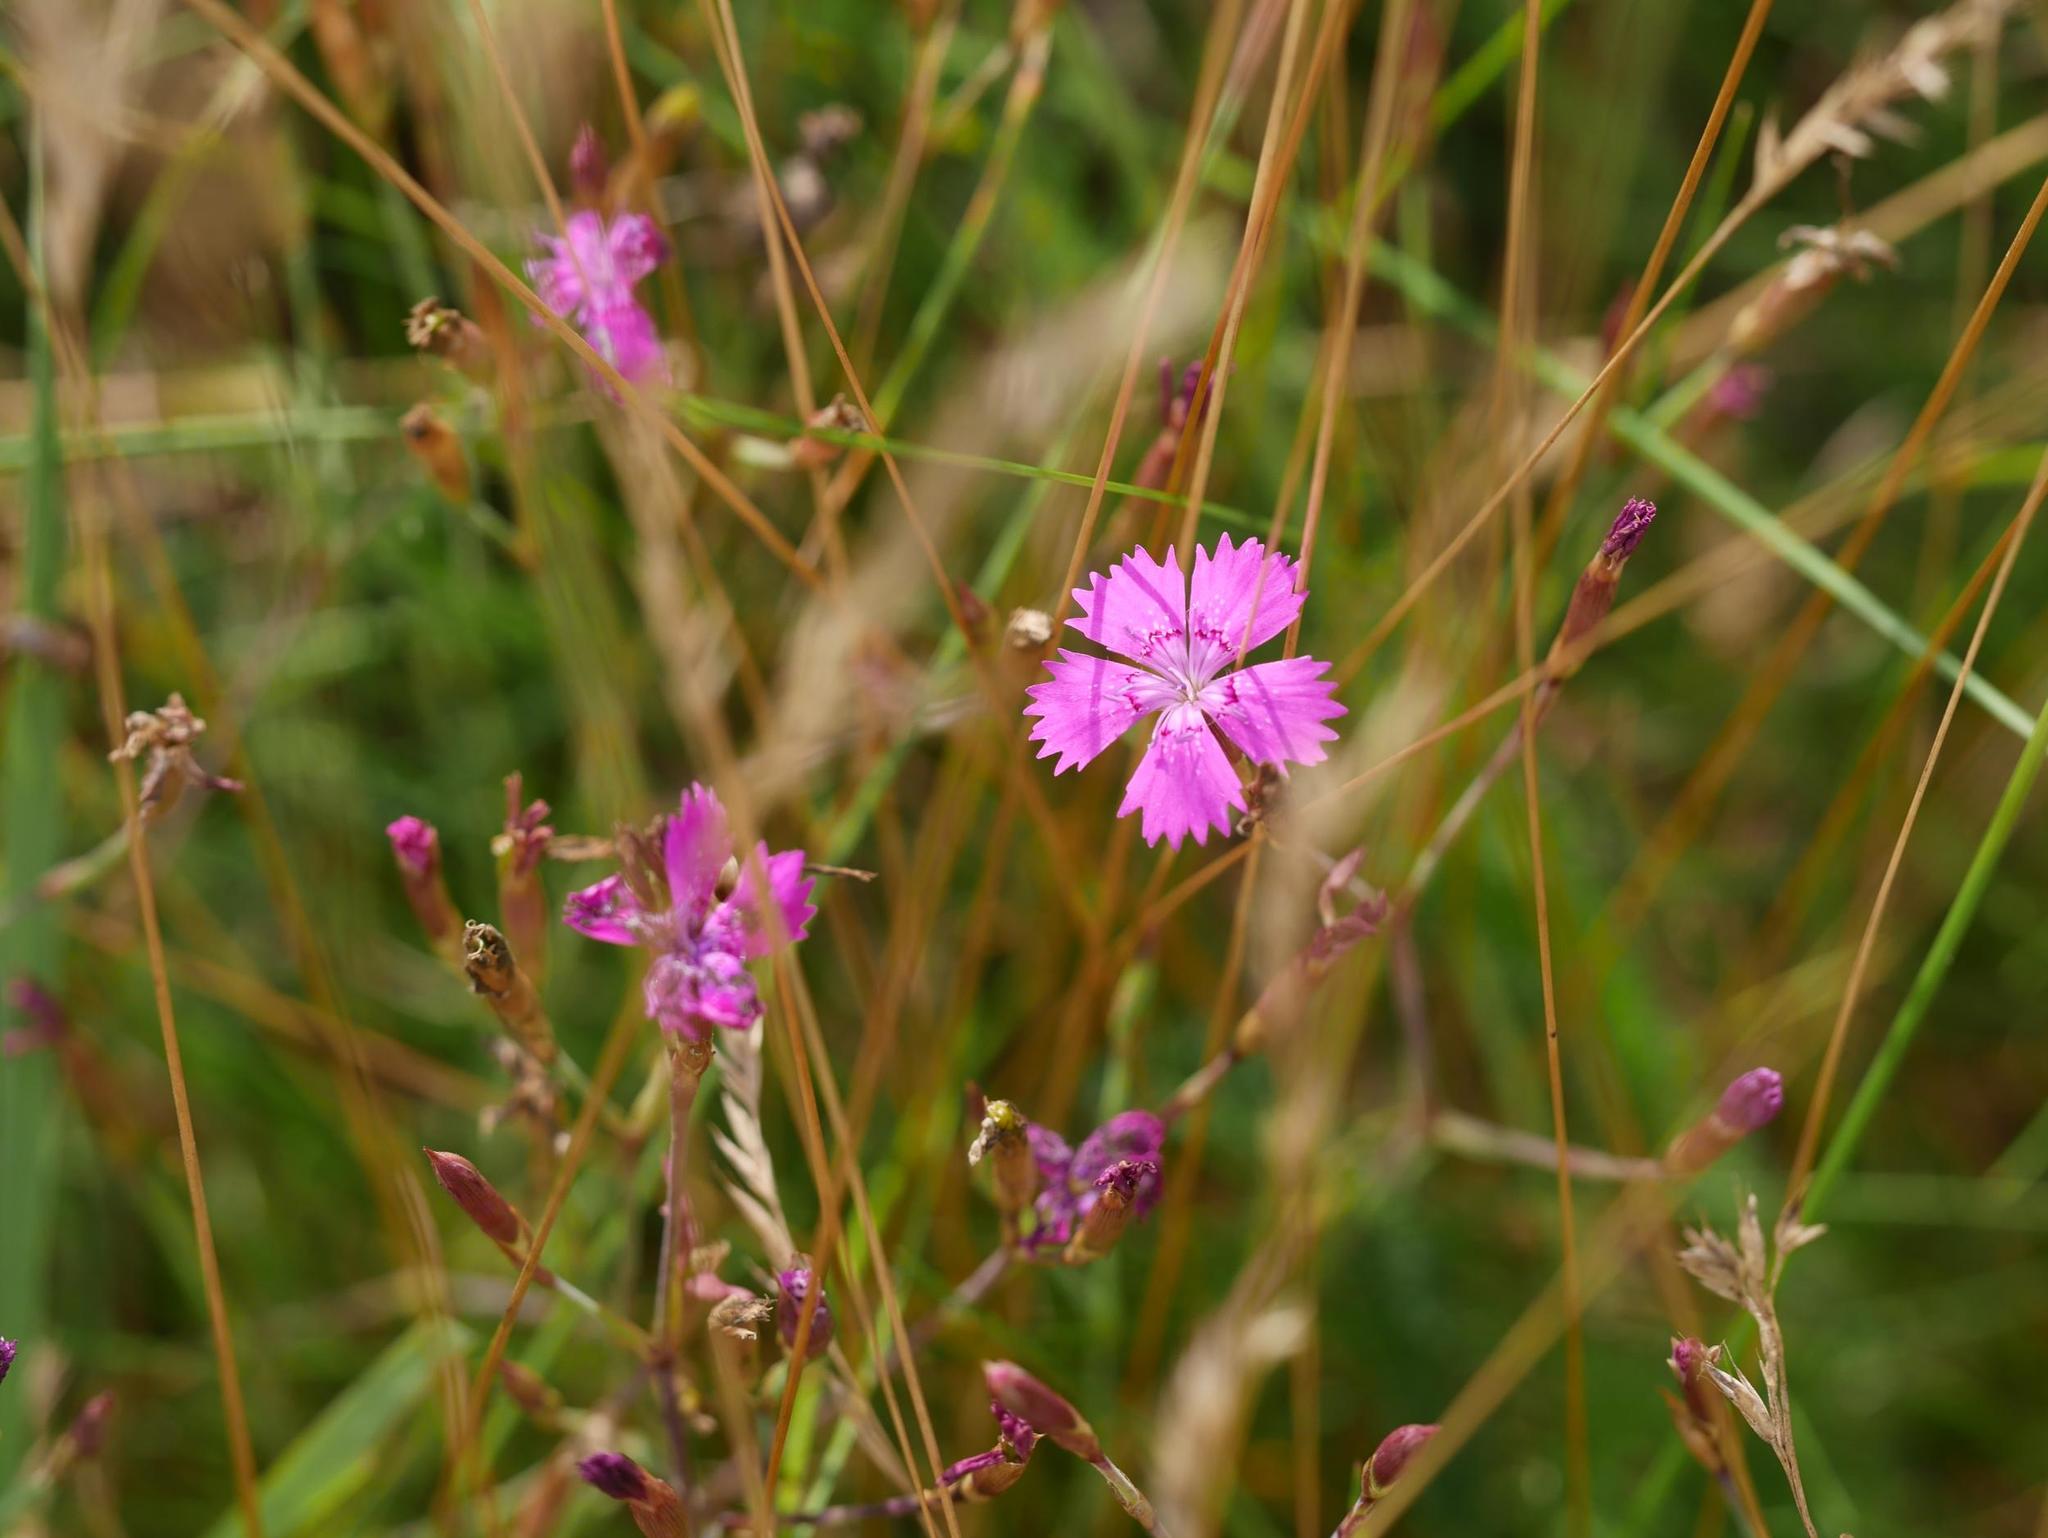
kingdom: Plantae
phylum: Tracheophyta
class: Magnoliopsida
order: Caryophyllales
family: Caryophyllaceae
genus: Dianthus
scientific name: Dianthus deltoides
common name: Maiden pink
